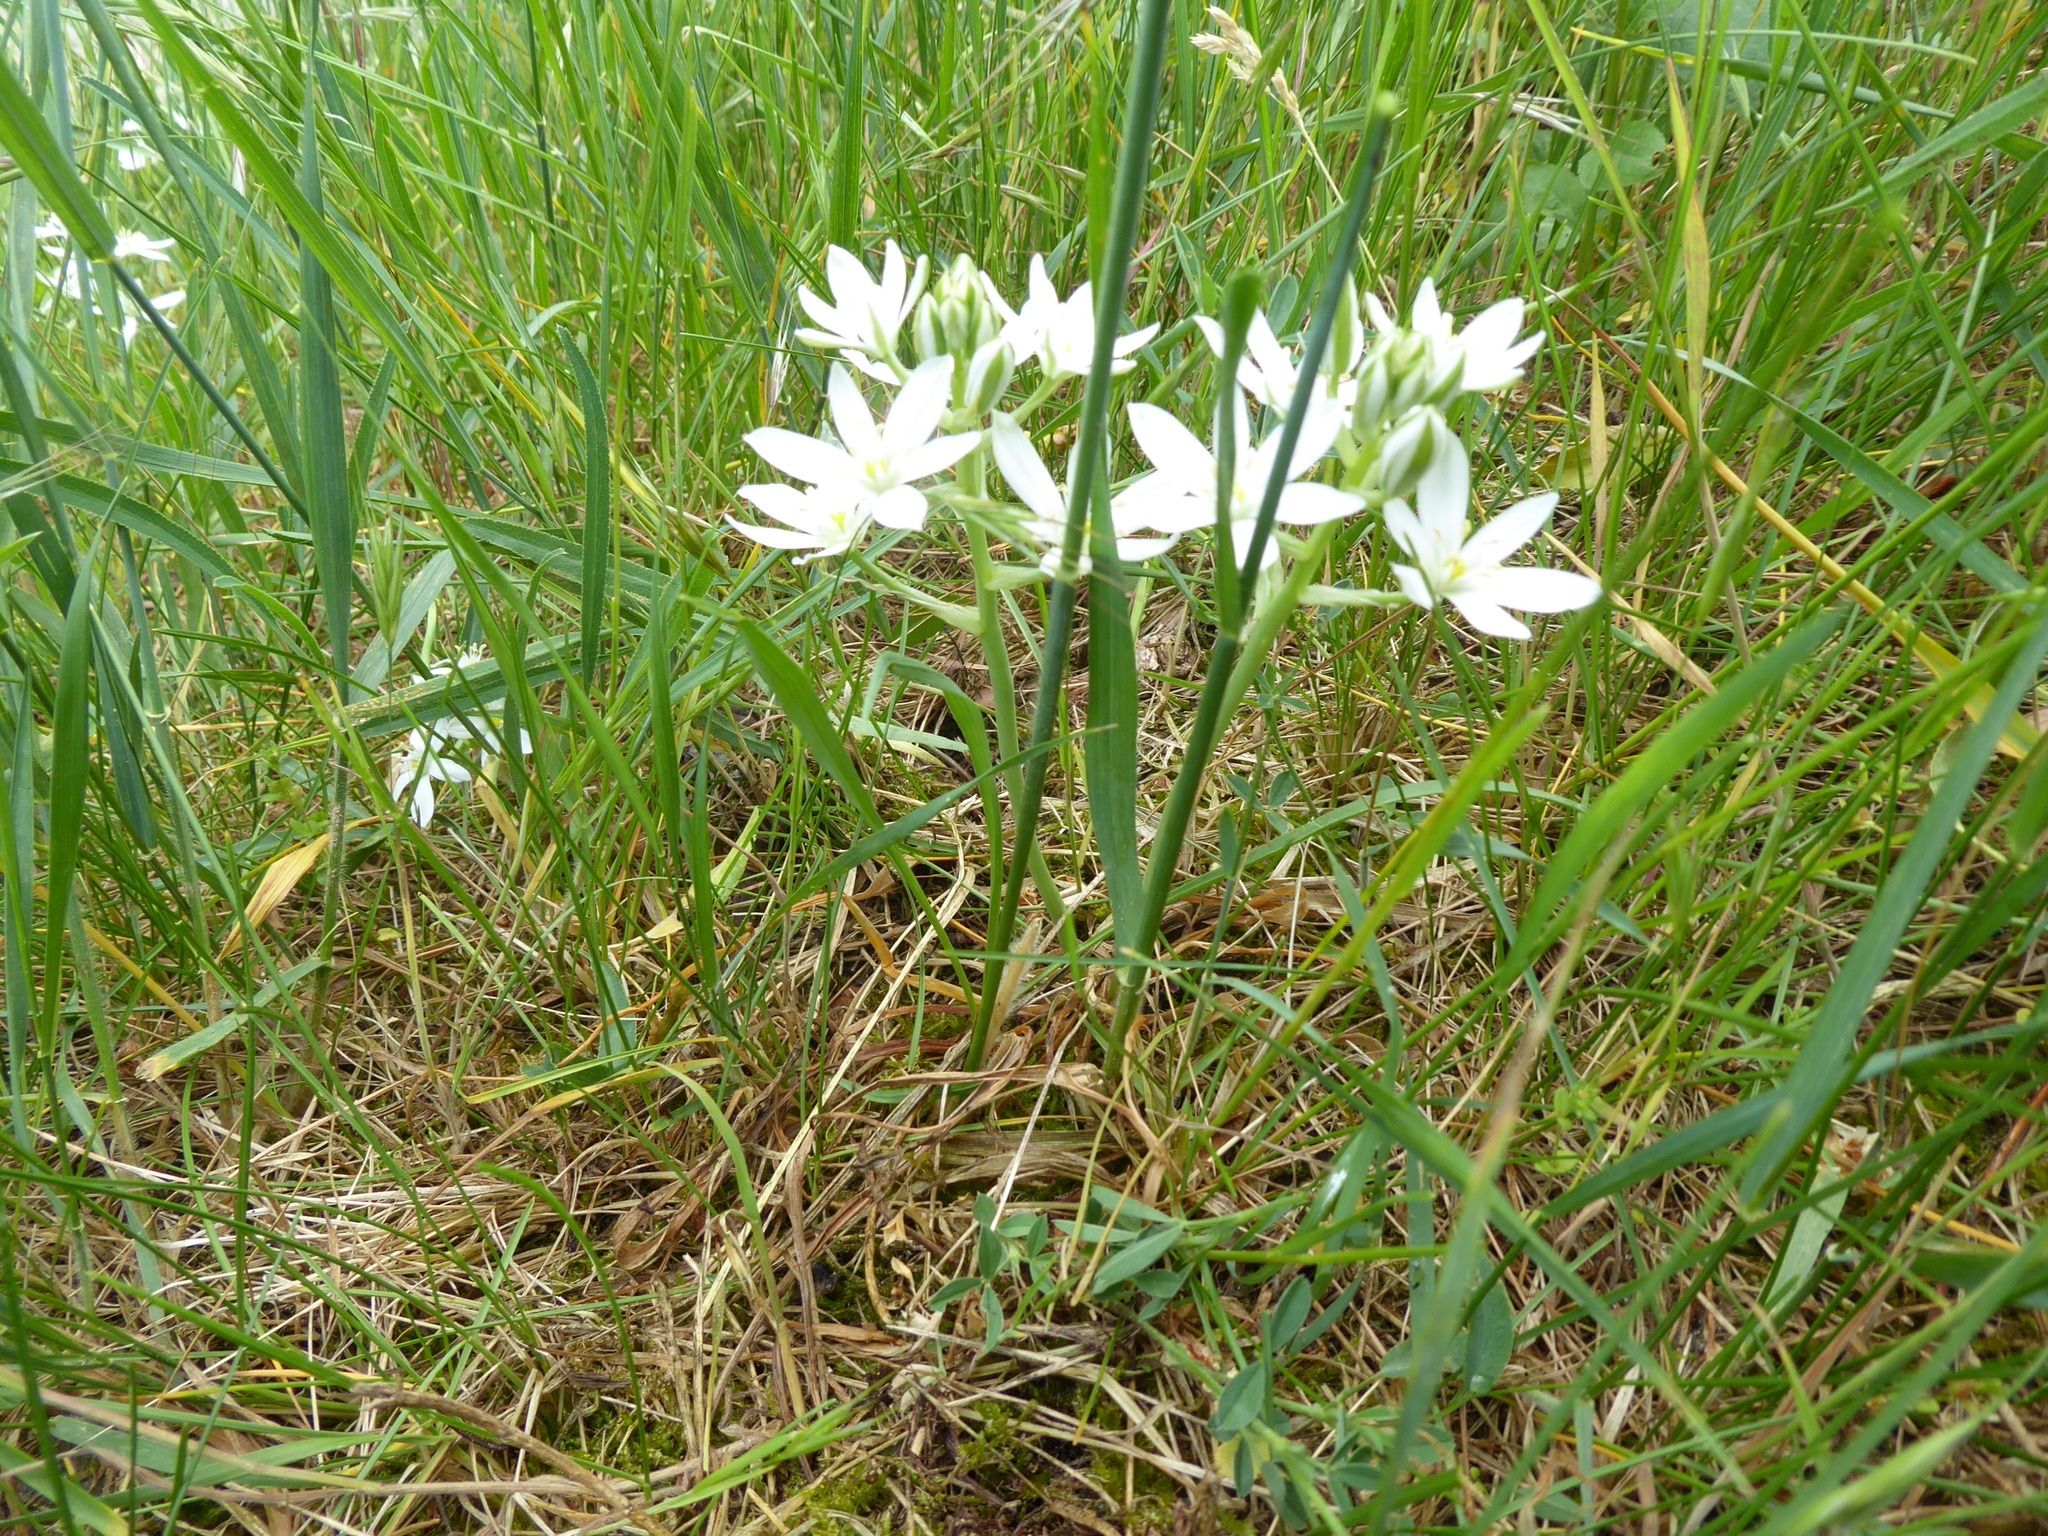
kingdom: Plantae
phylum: Tracheophyta
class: Liliopsida
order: Asparagales
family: Asparagaceae
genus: Ornithogalum
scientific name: Ornithogalum orthophyllum
